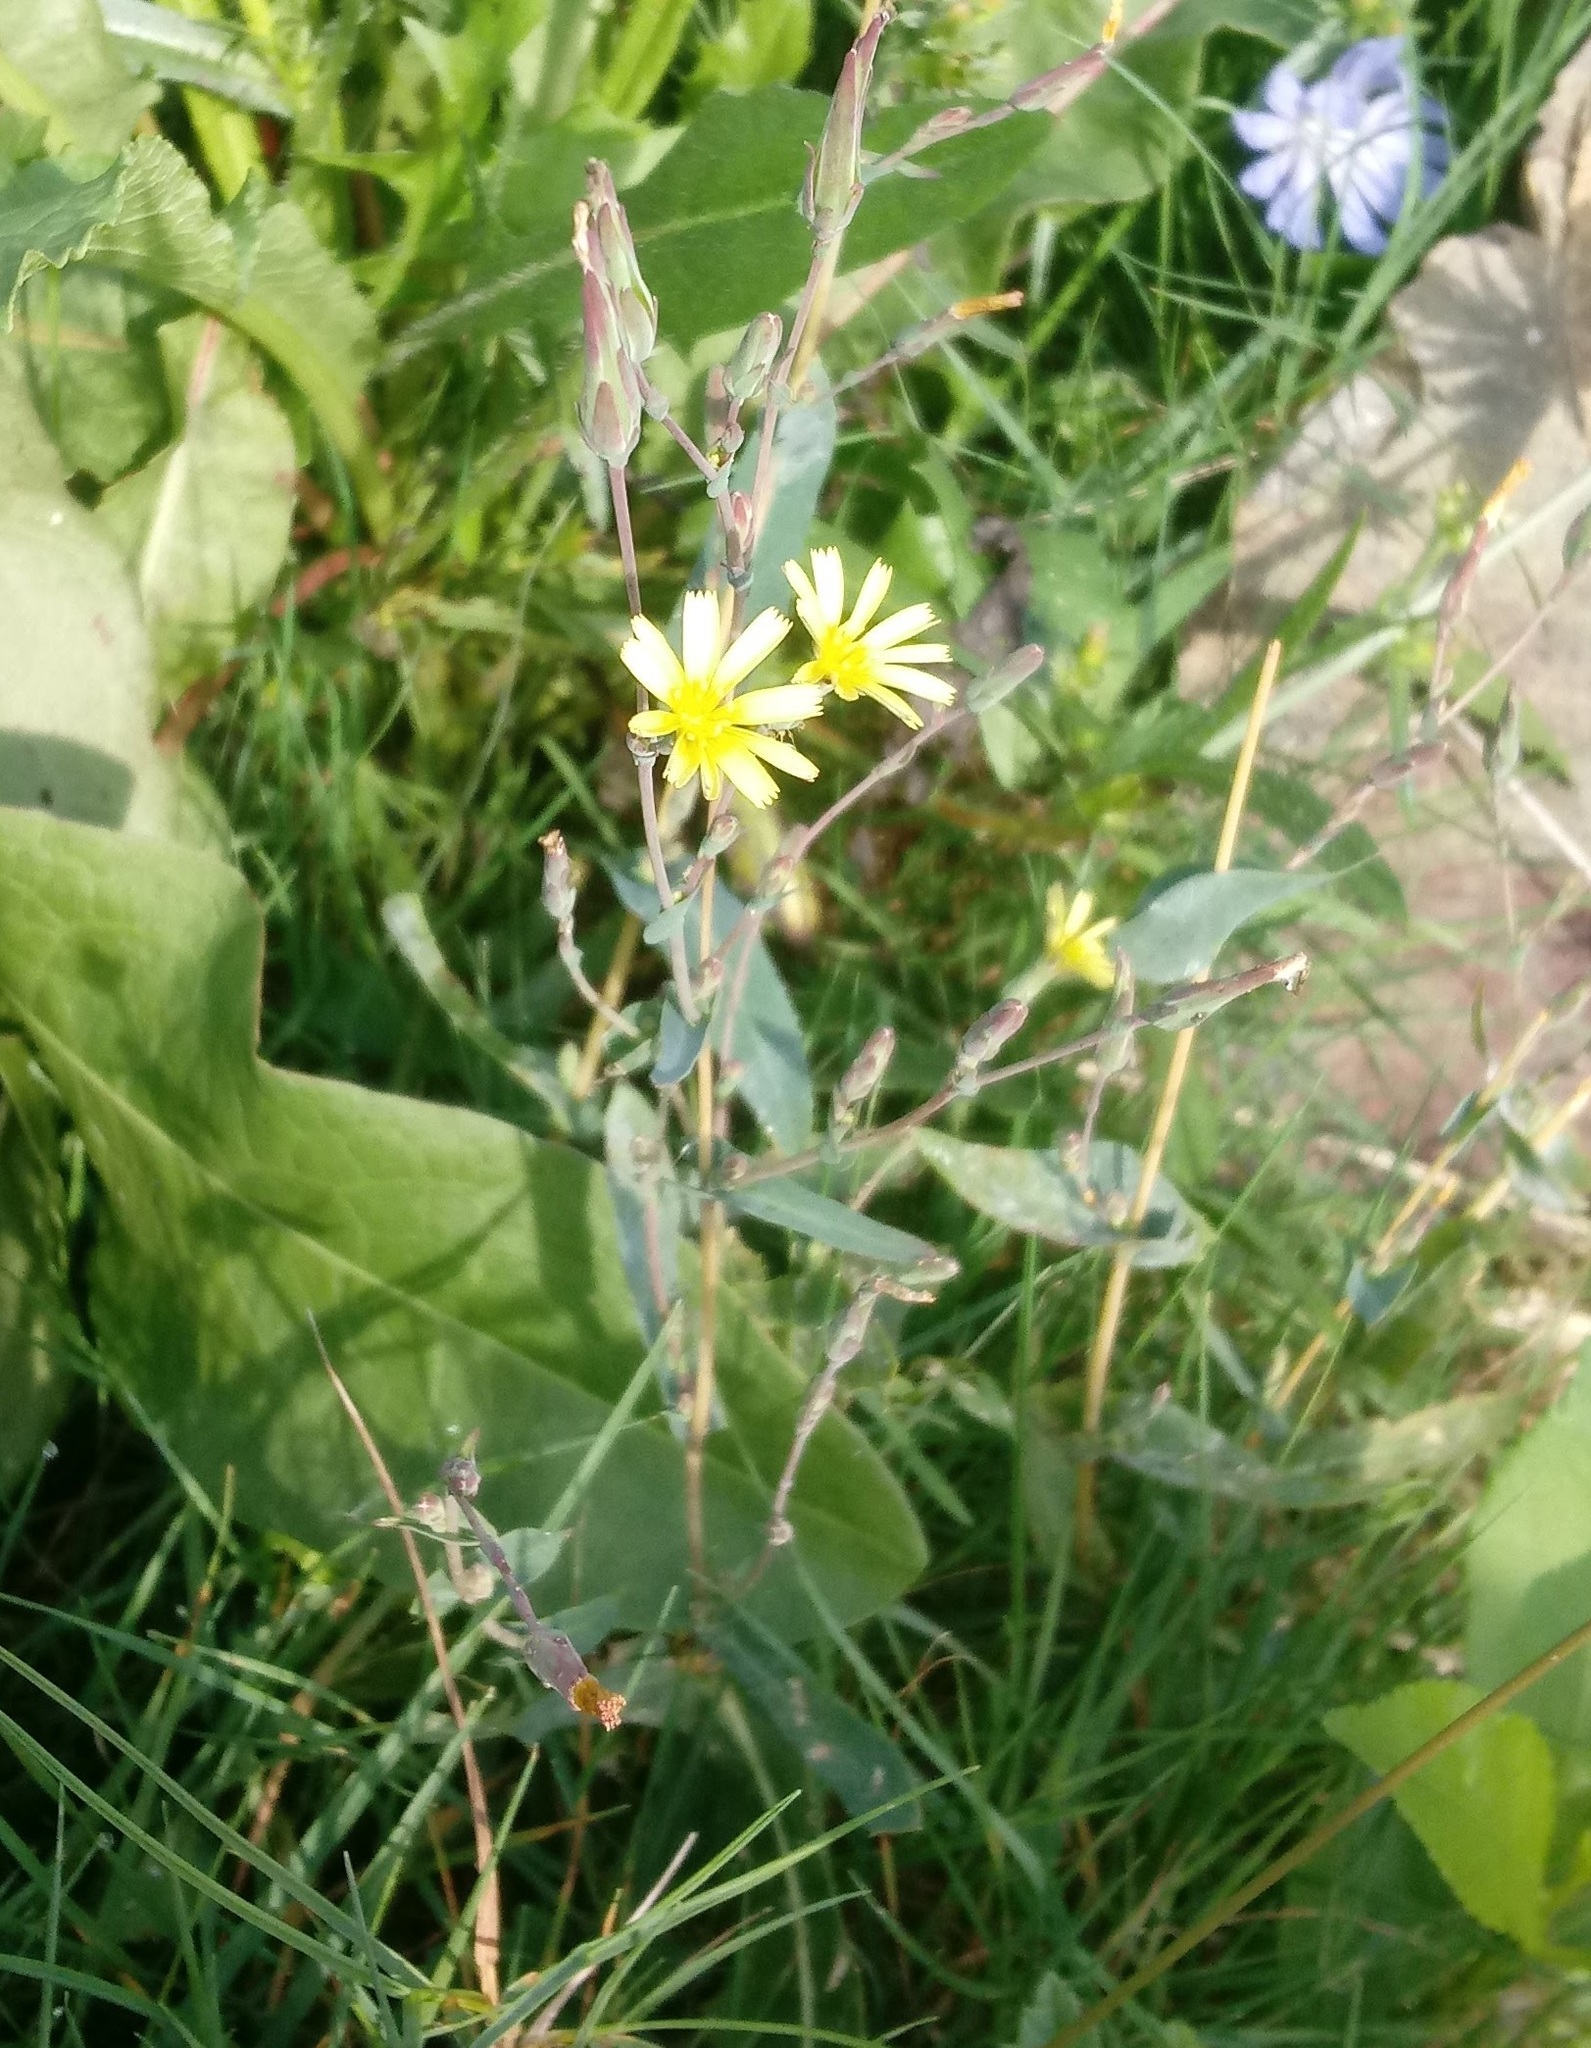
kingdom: Plantae
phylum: Tracheophyta
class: Magnoliopsida
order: Asterales
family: Asteraceae
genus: Lactuca
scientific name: Lactuca serriola
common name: Prickly lettuce
